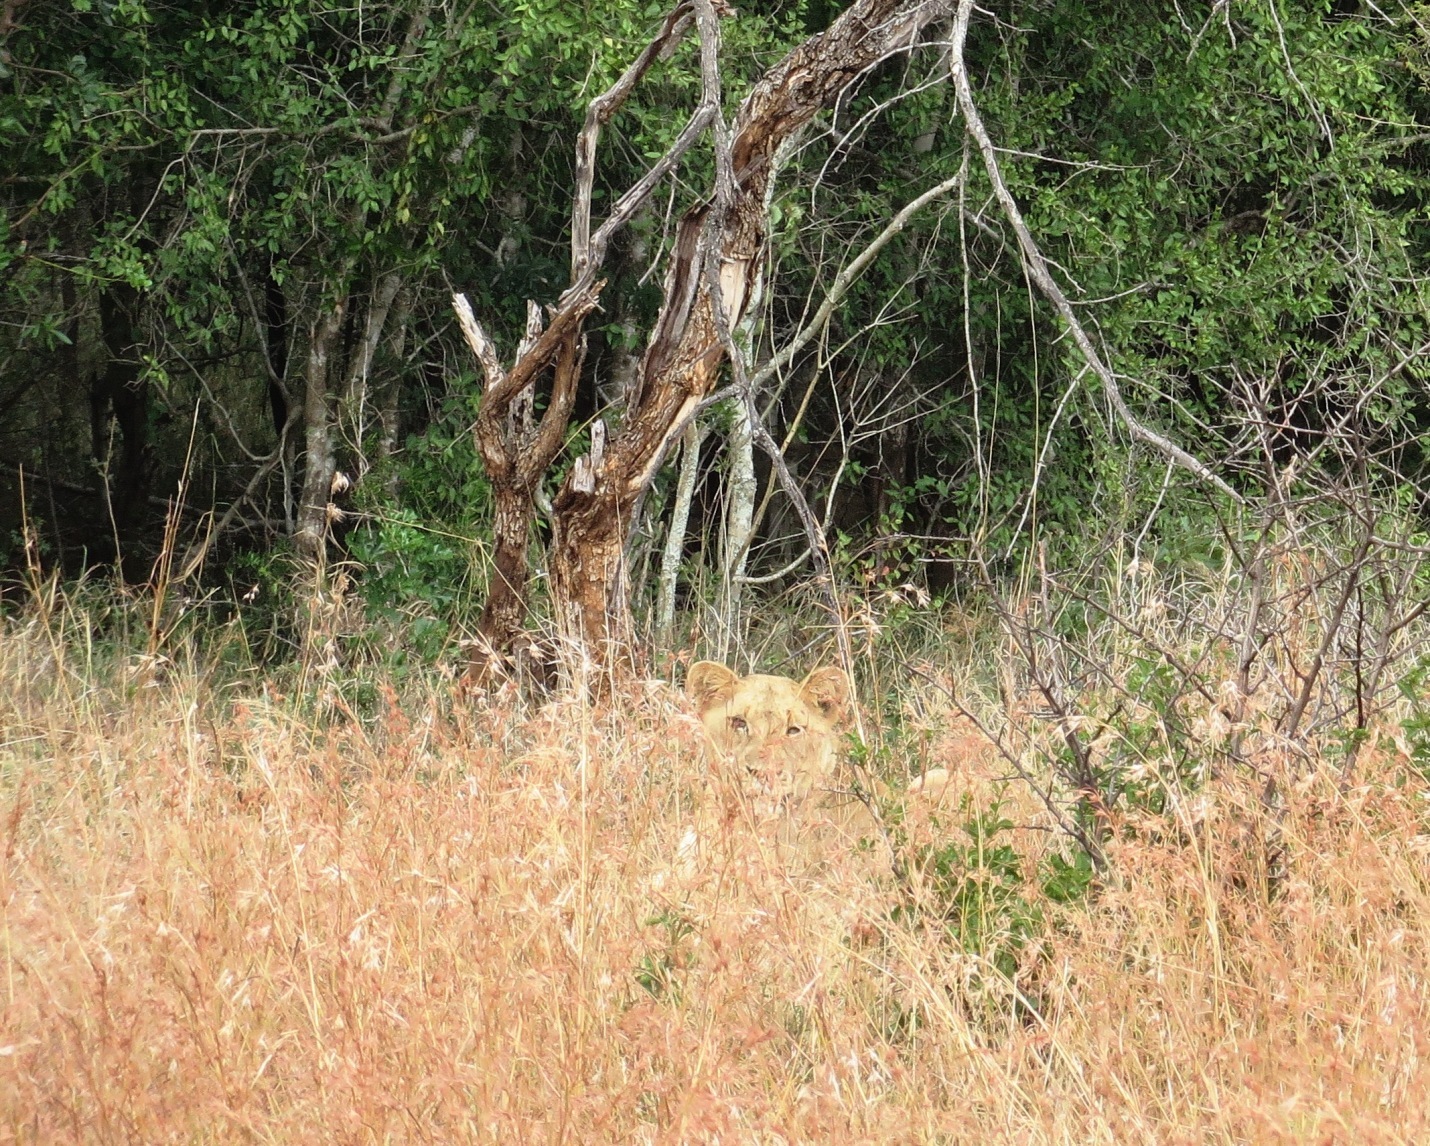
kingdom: Animalia
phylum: Chordata
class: Mammalia
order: Carnivora
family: Felidae
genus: Panthera
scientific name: Panthera leo
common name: Lion
